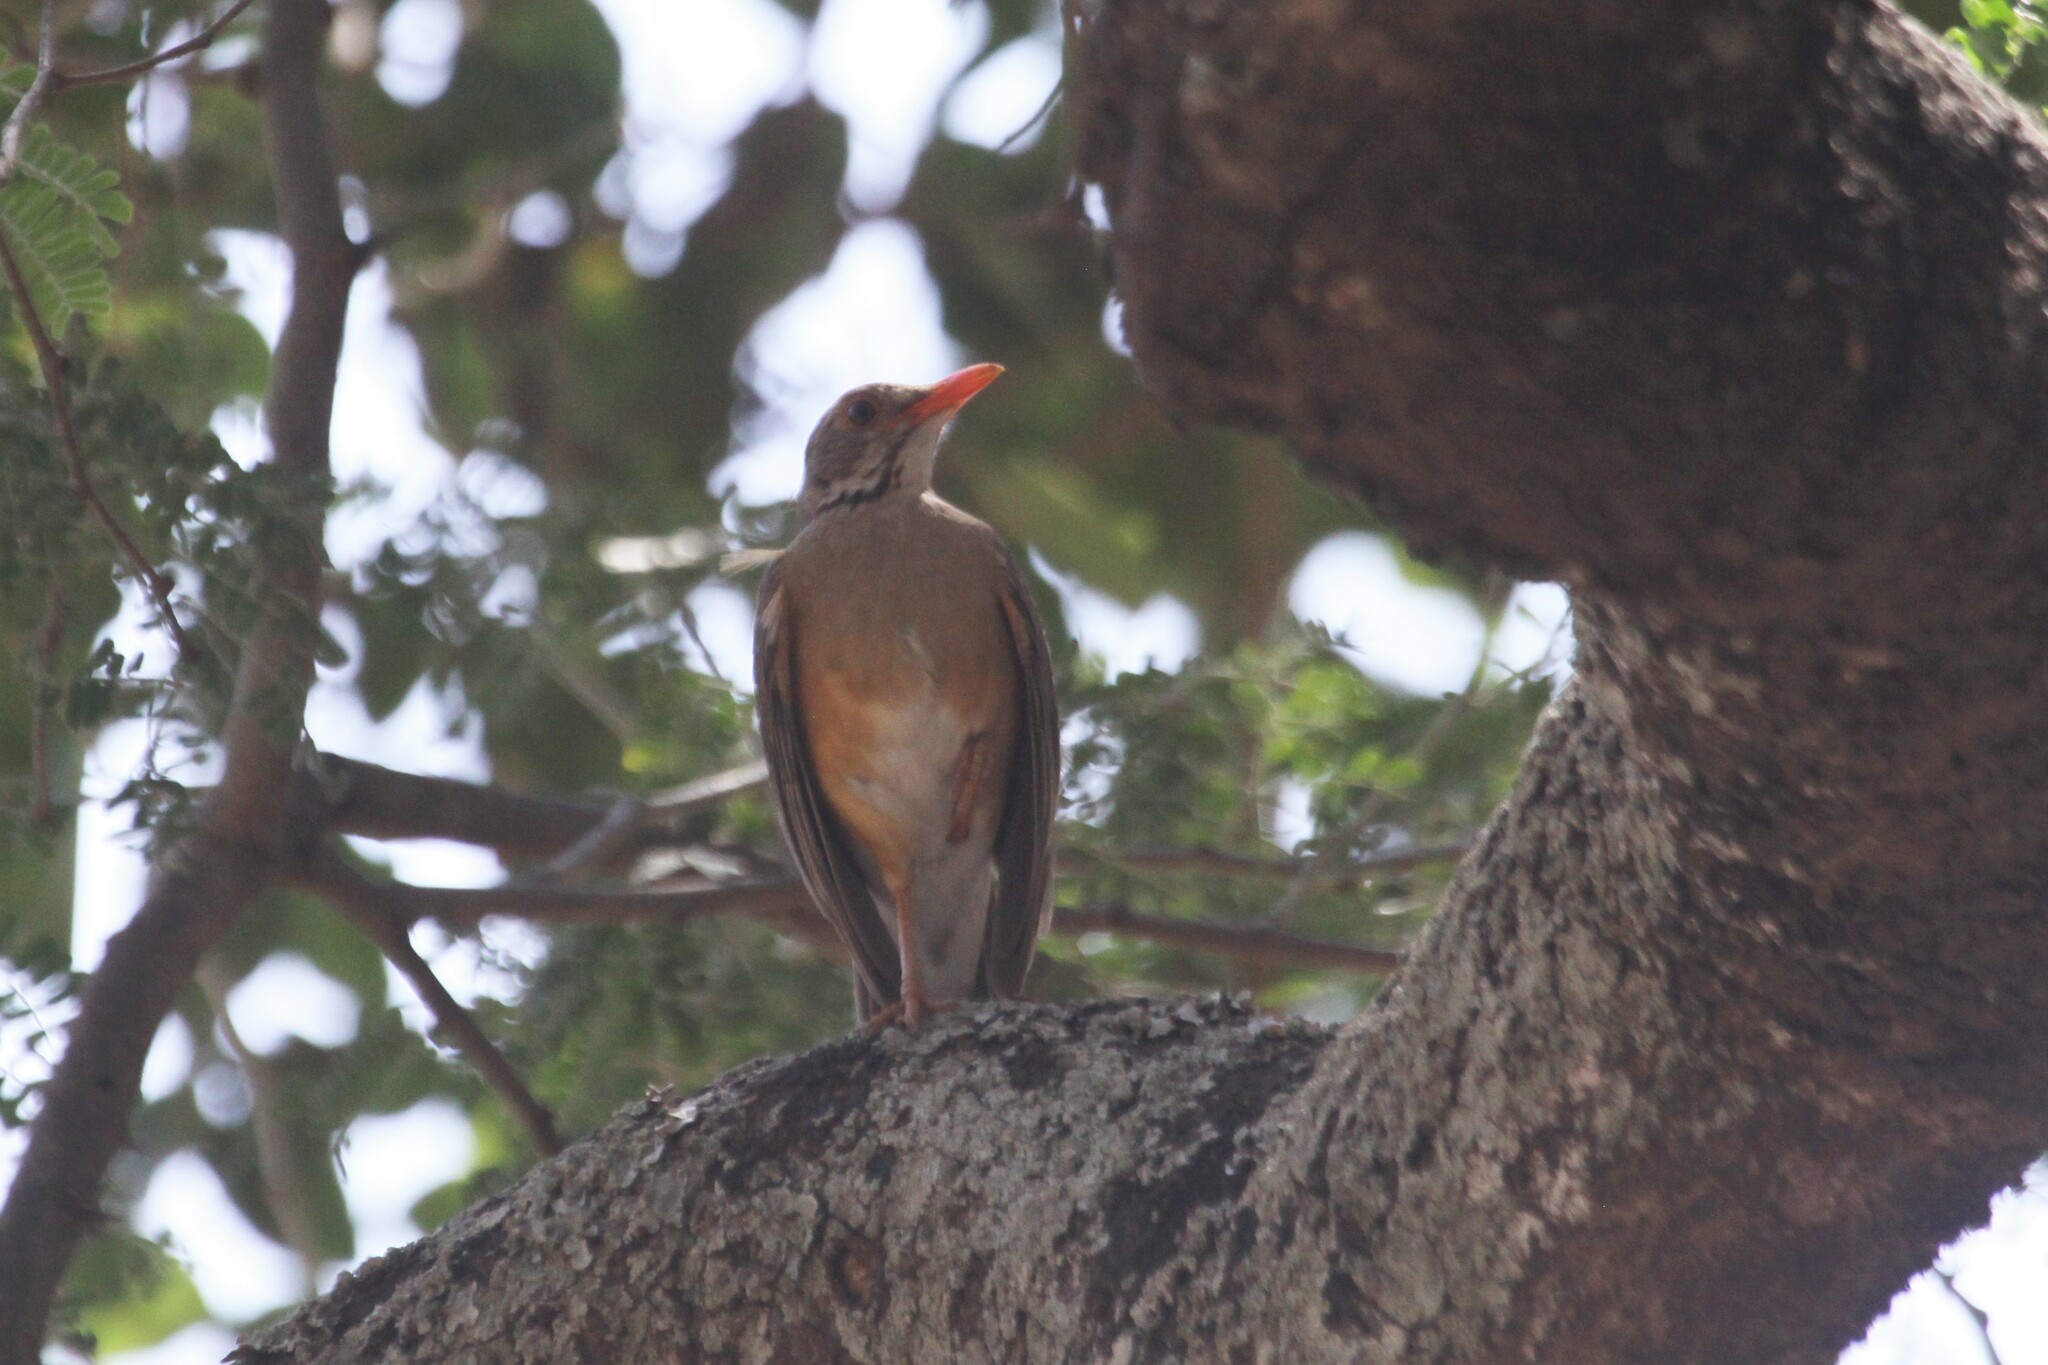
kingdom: Animalia
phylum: Chordata
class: Aves
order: Passeriformes
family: Turdidae
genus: Turdus
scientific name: Turdus libonyana
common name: Kurrichane thrush
